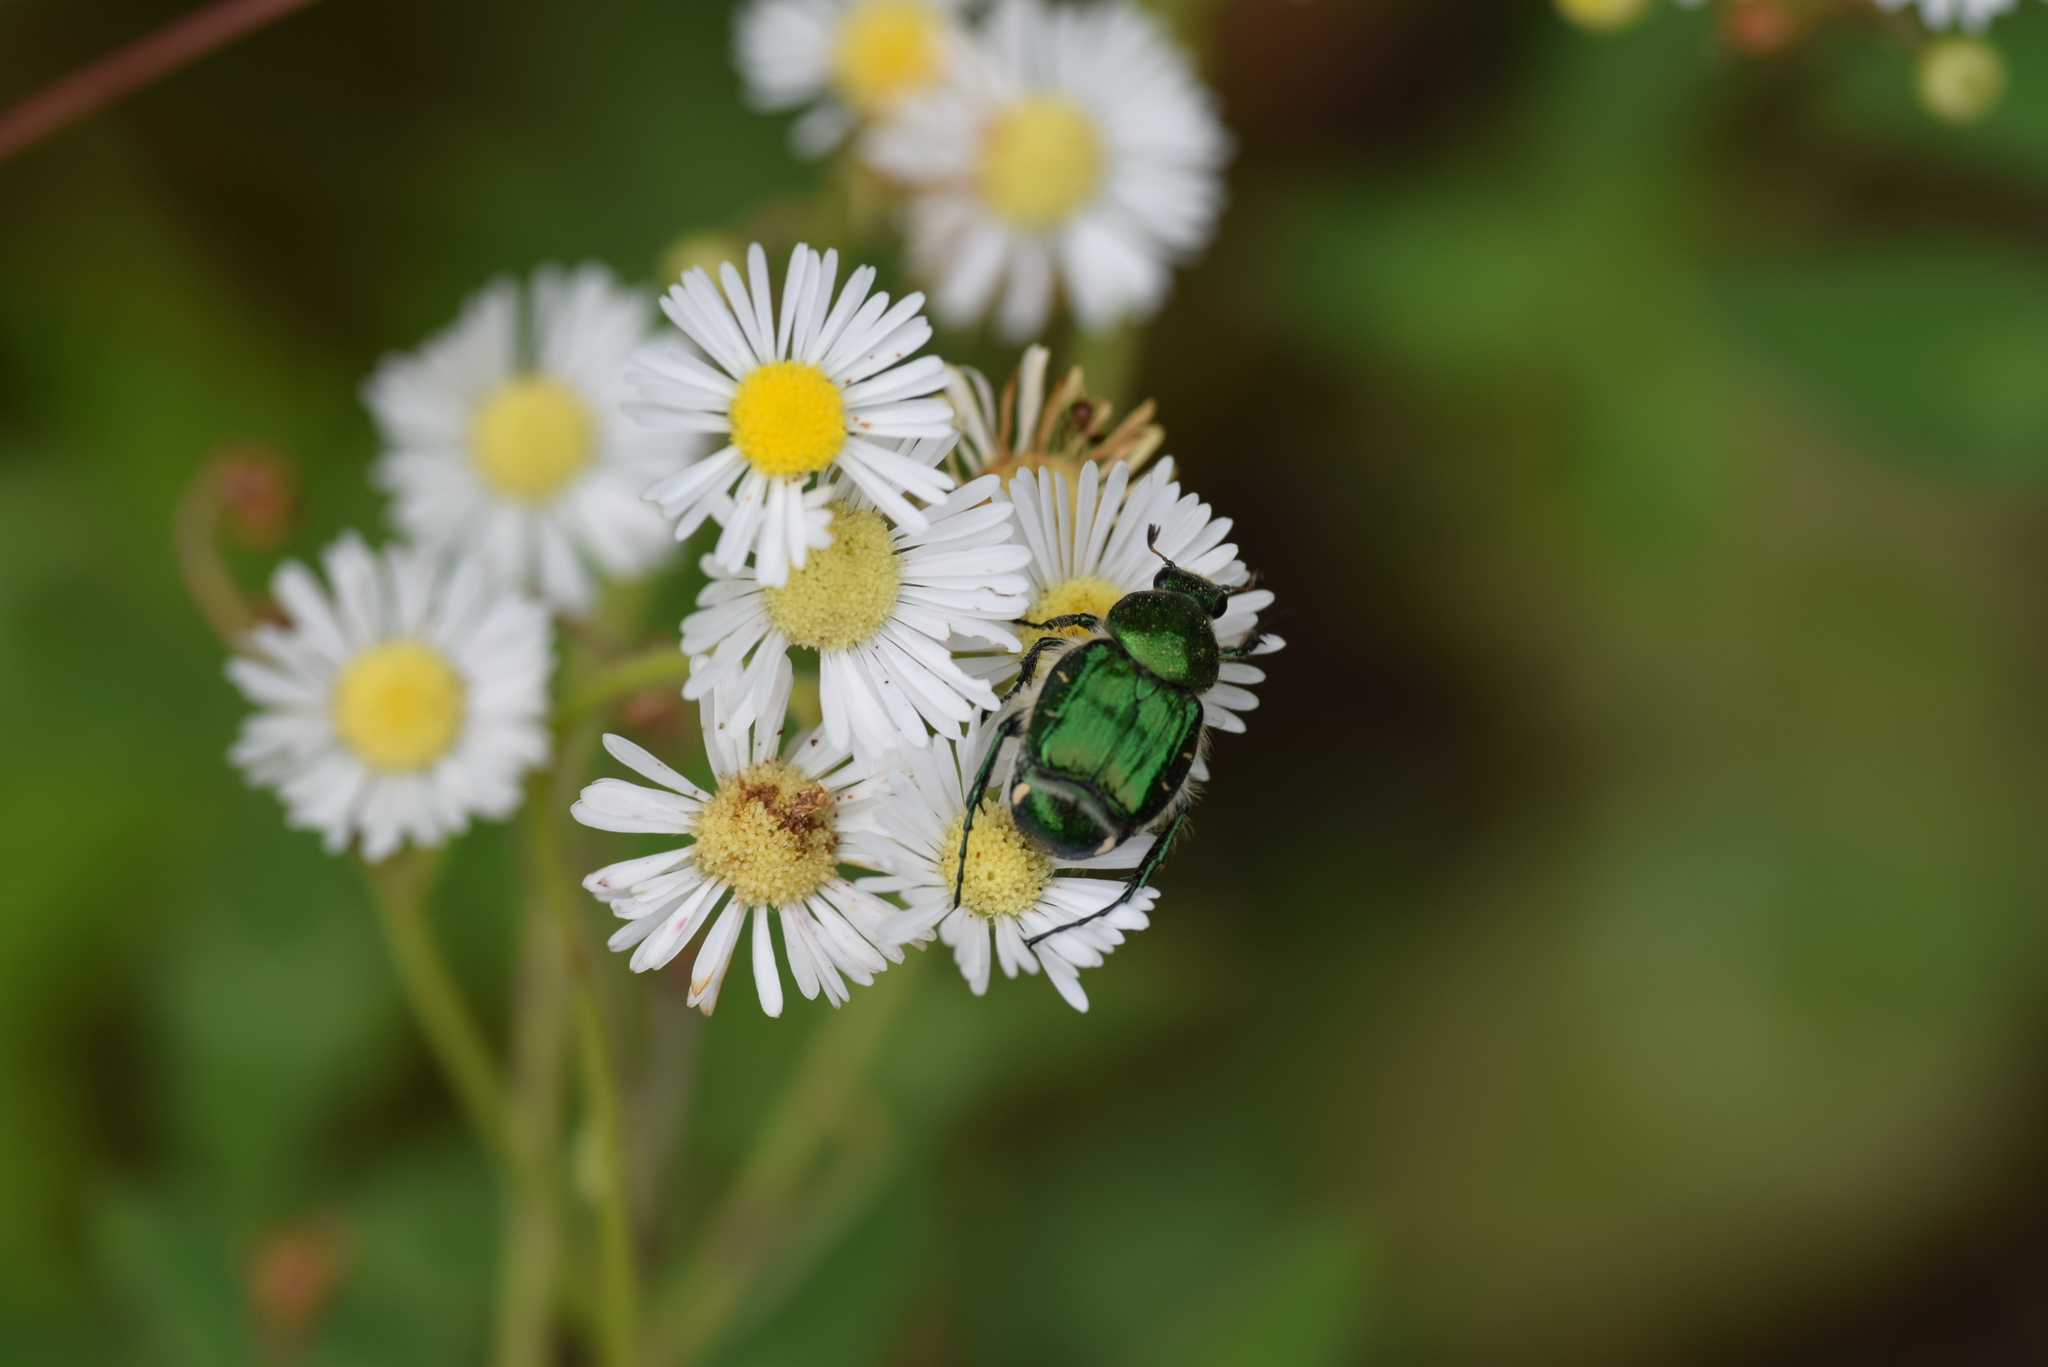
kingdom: Animalia
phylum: Arthropoda
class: Insecta
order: Coleoptera
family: Scarabaeidae
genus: Trichiotinus
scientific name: Trichiotinus lunulatus
